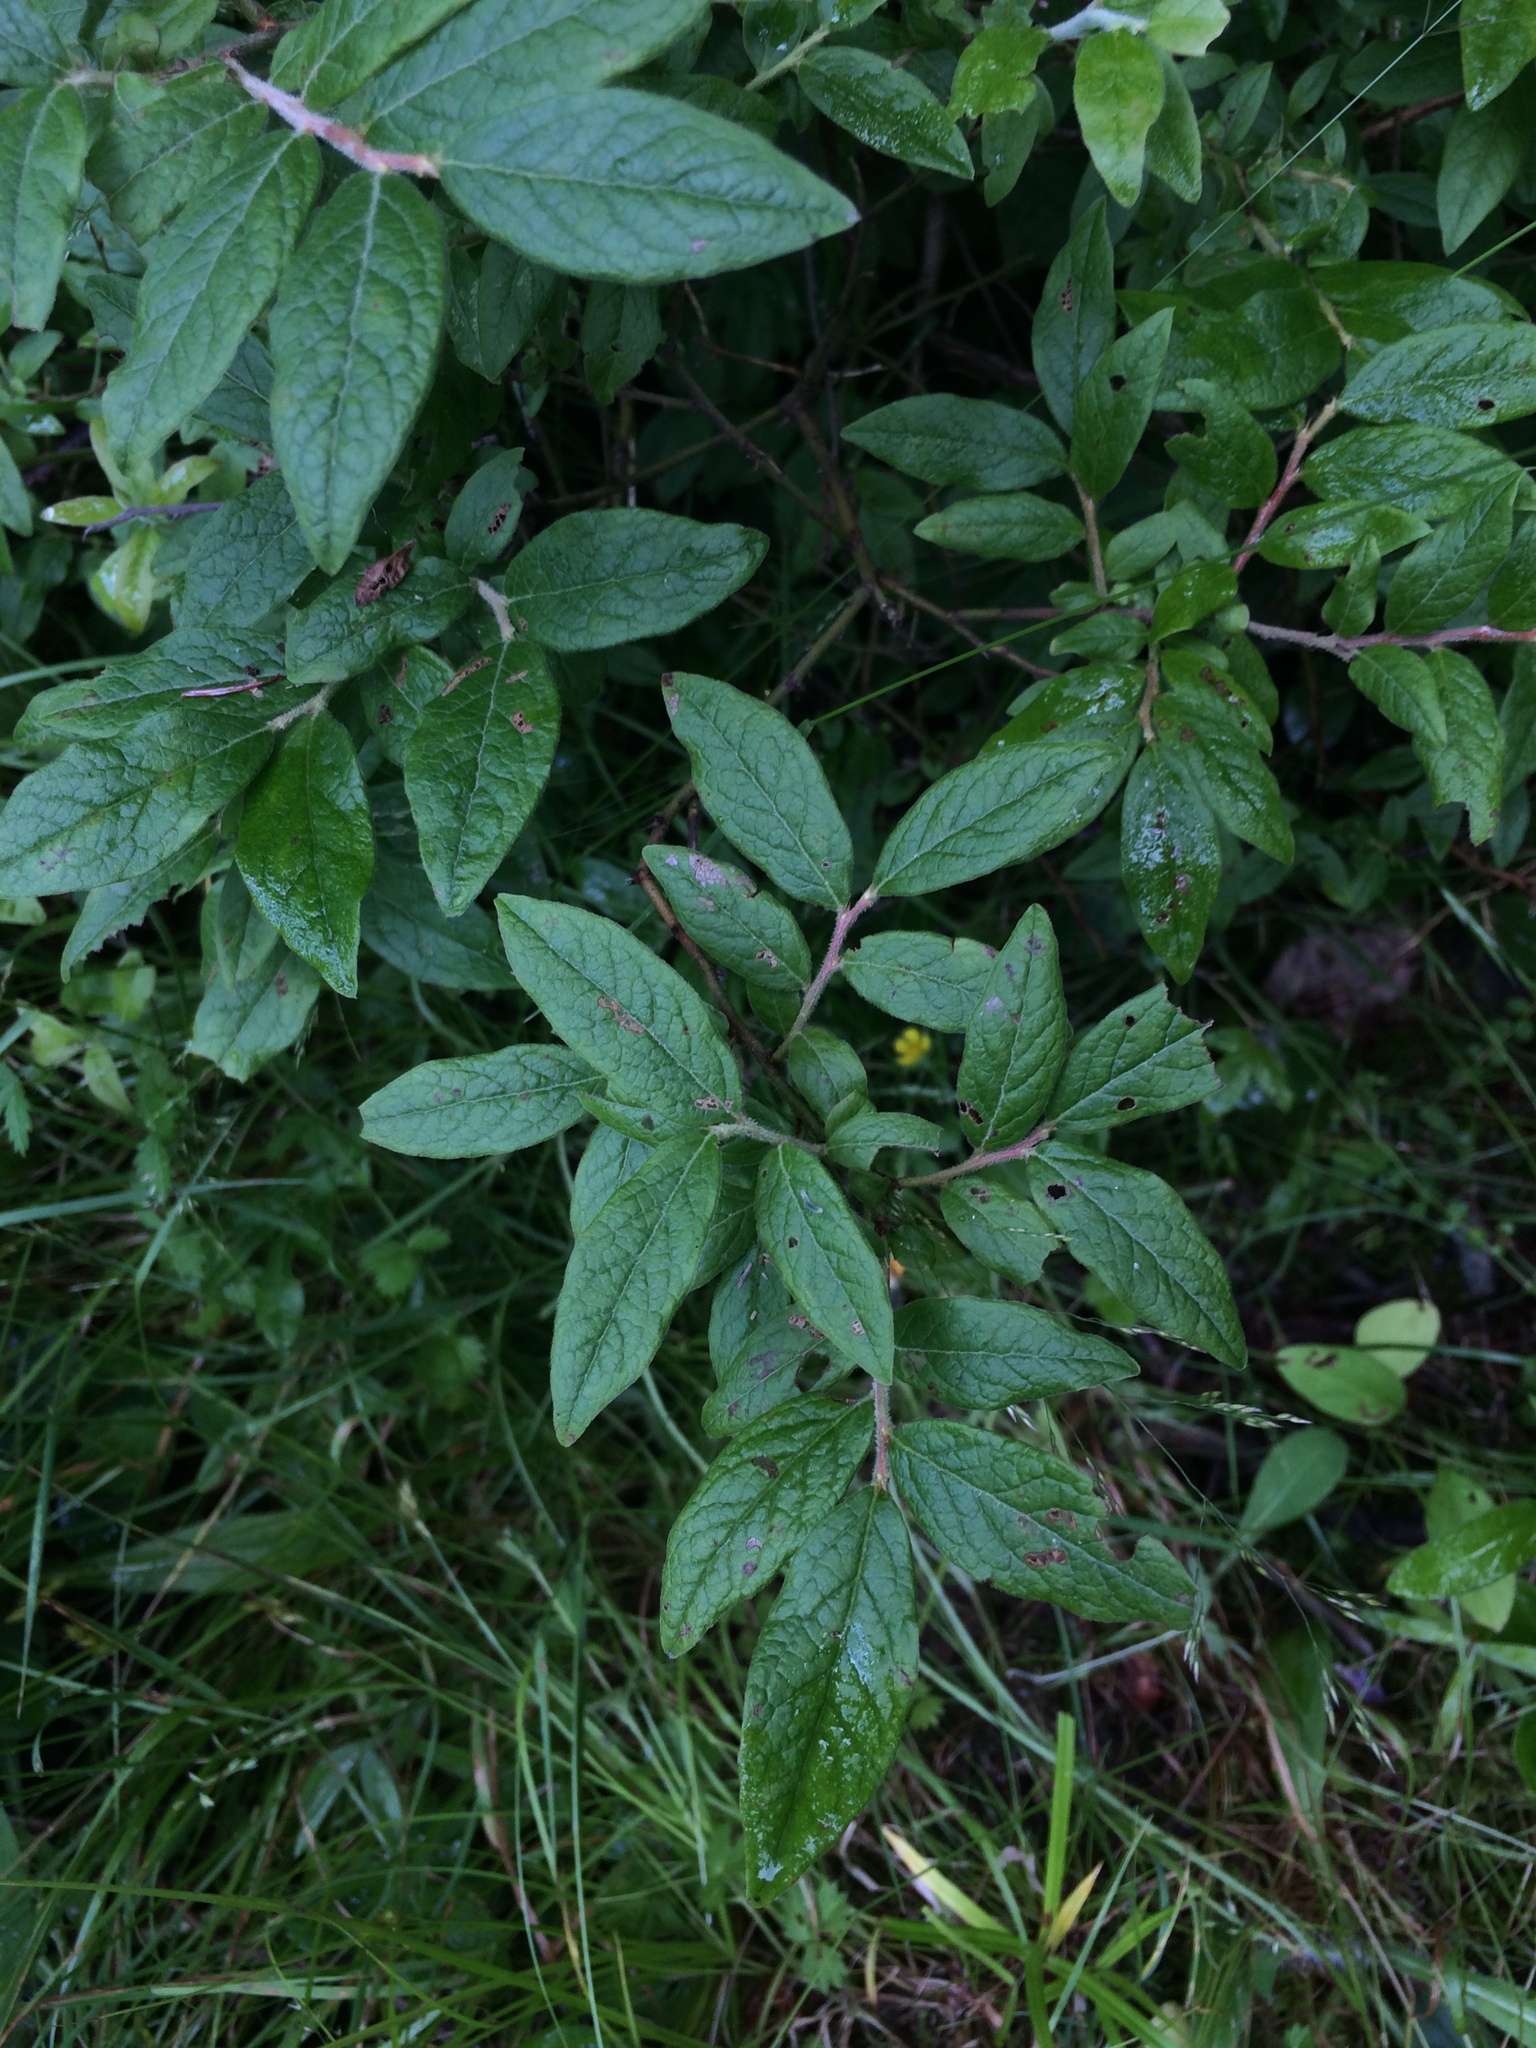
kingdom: Plantae
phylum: Tracheophyta
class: Magnoliopsida
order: Ericales
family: Ericaceae
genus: Vaccinium
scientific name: Vaccinium myrtilloides
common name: Canada blueberry
